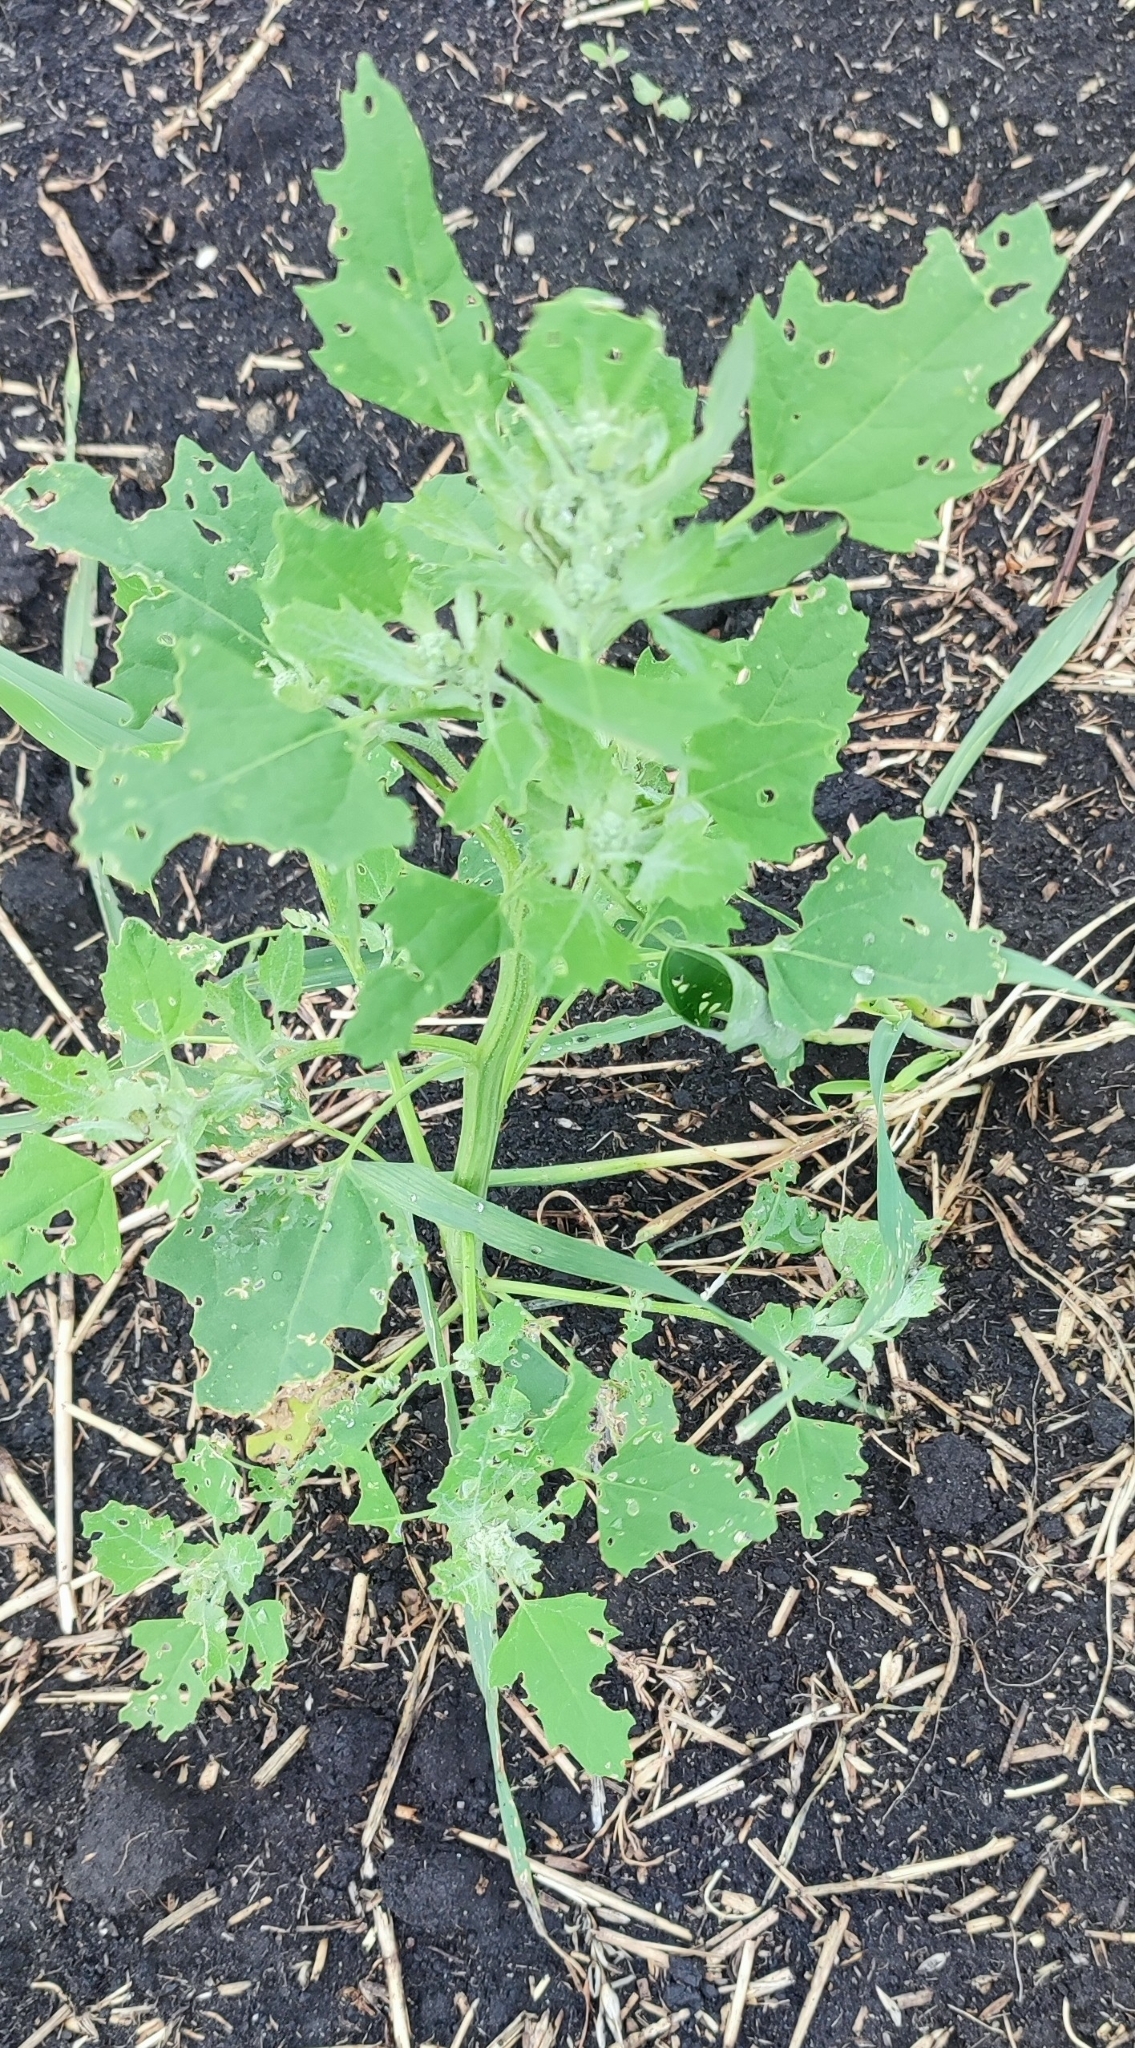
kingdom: Plantae
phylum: Tracheophyta
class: Magnoliopsida
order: Caryophyllales
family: Amaranthaceae
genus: Chenopodium
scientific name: Chenopodium album
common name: Fat-hen
